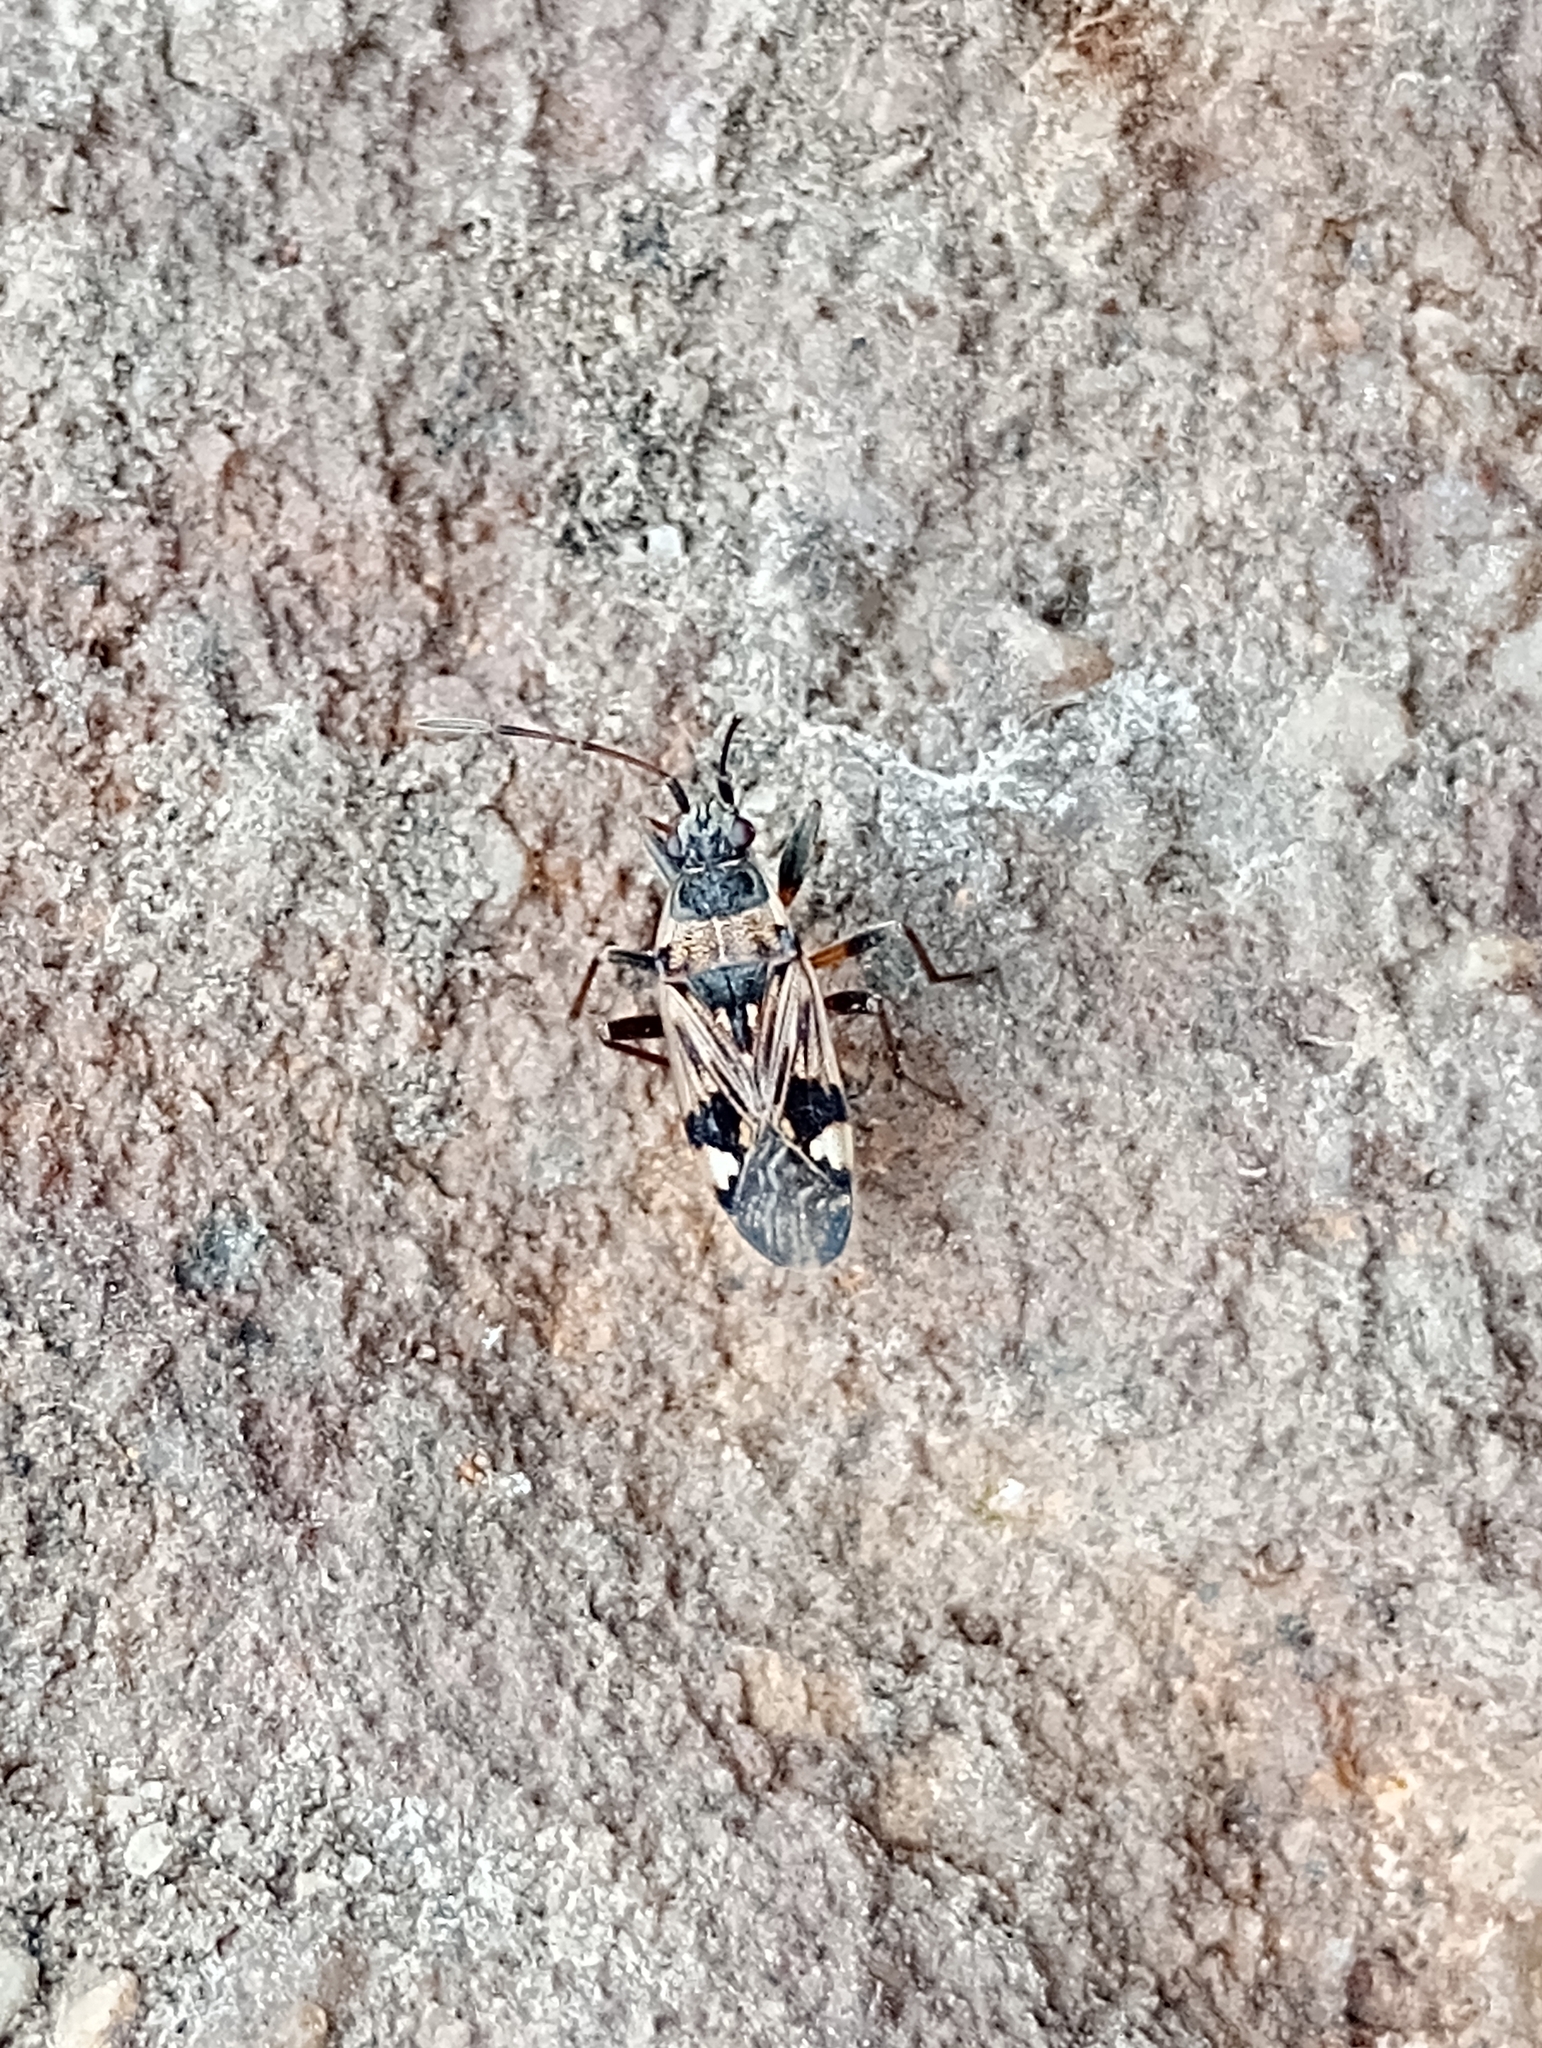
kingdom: Animalia
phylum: Arthropoda
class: Insecta
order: Hemiptera
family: Rhyparochromidae
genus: Beosus
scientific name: Beosus maritimus
